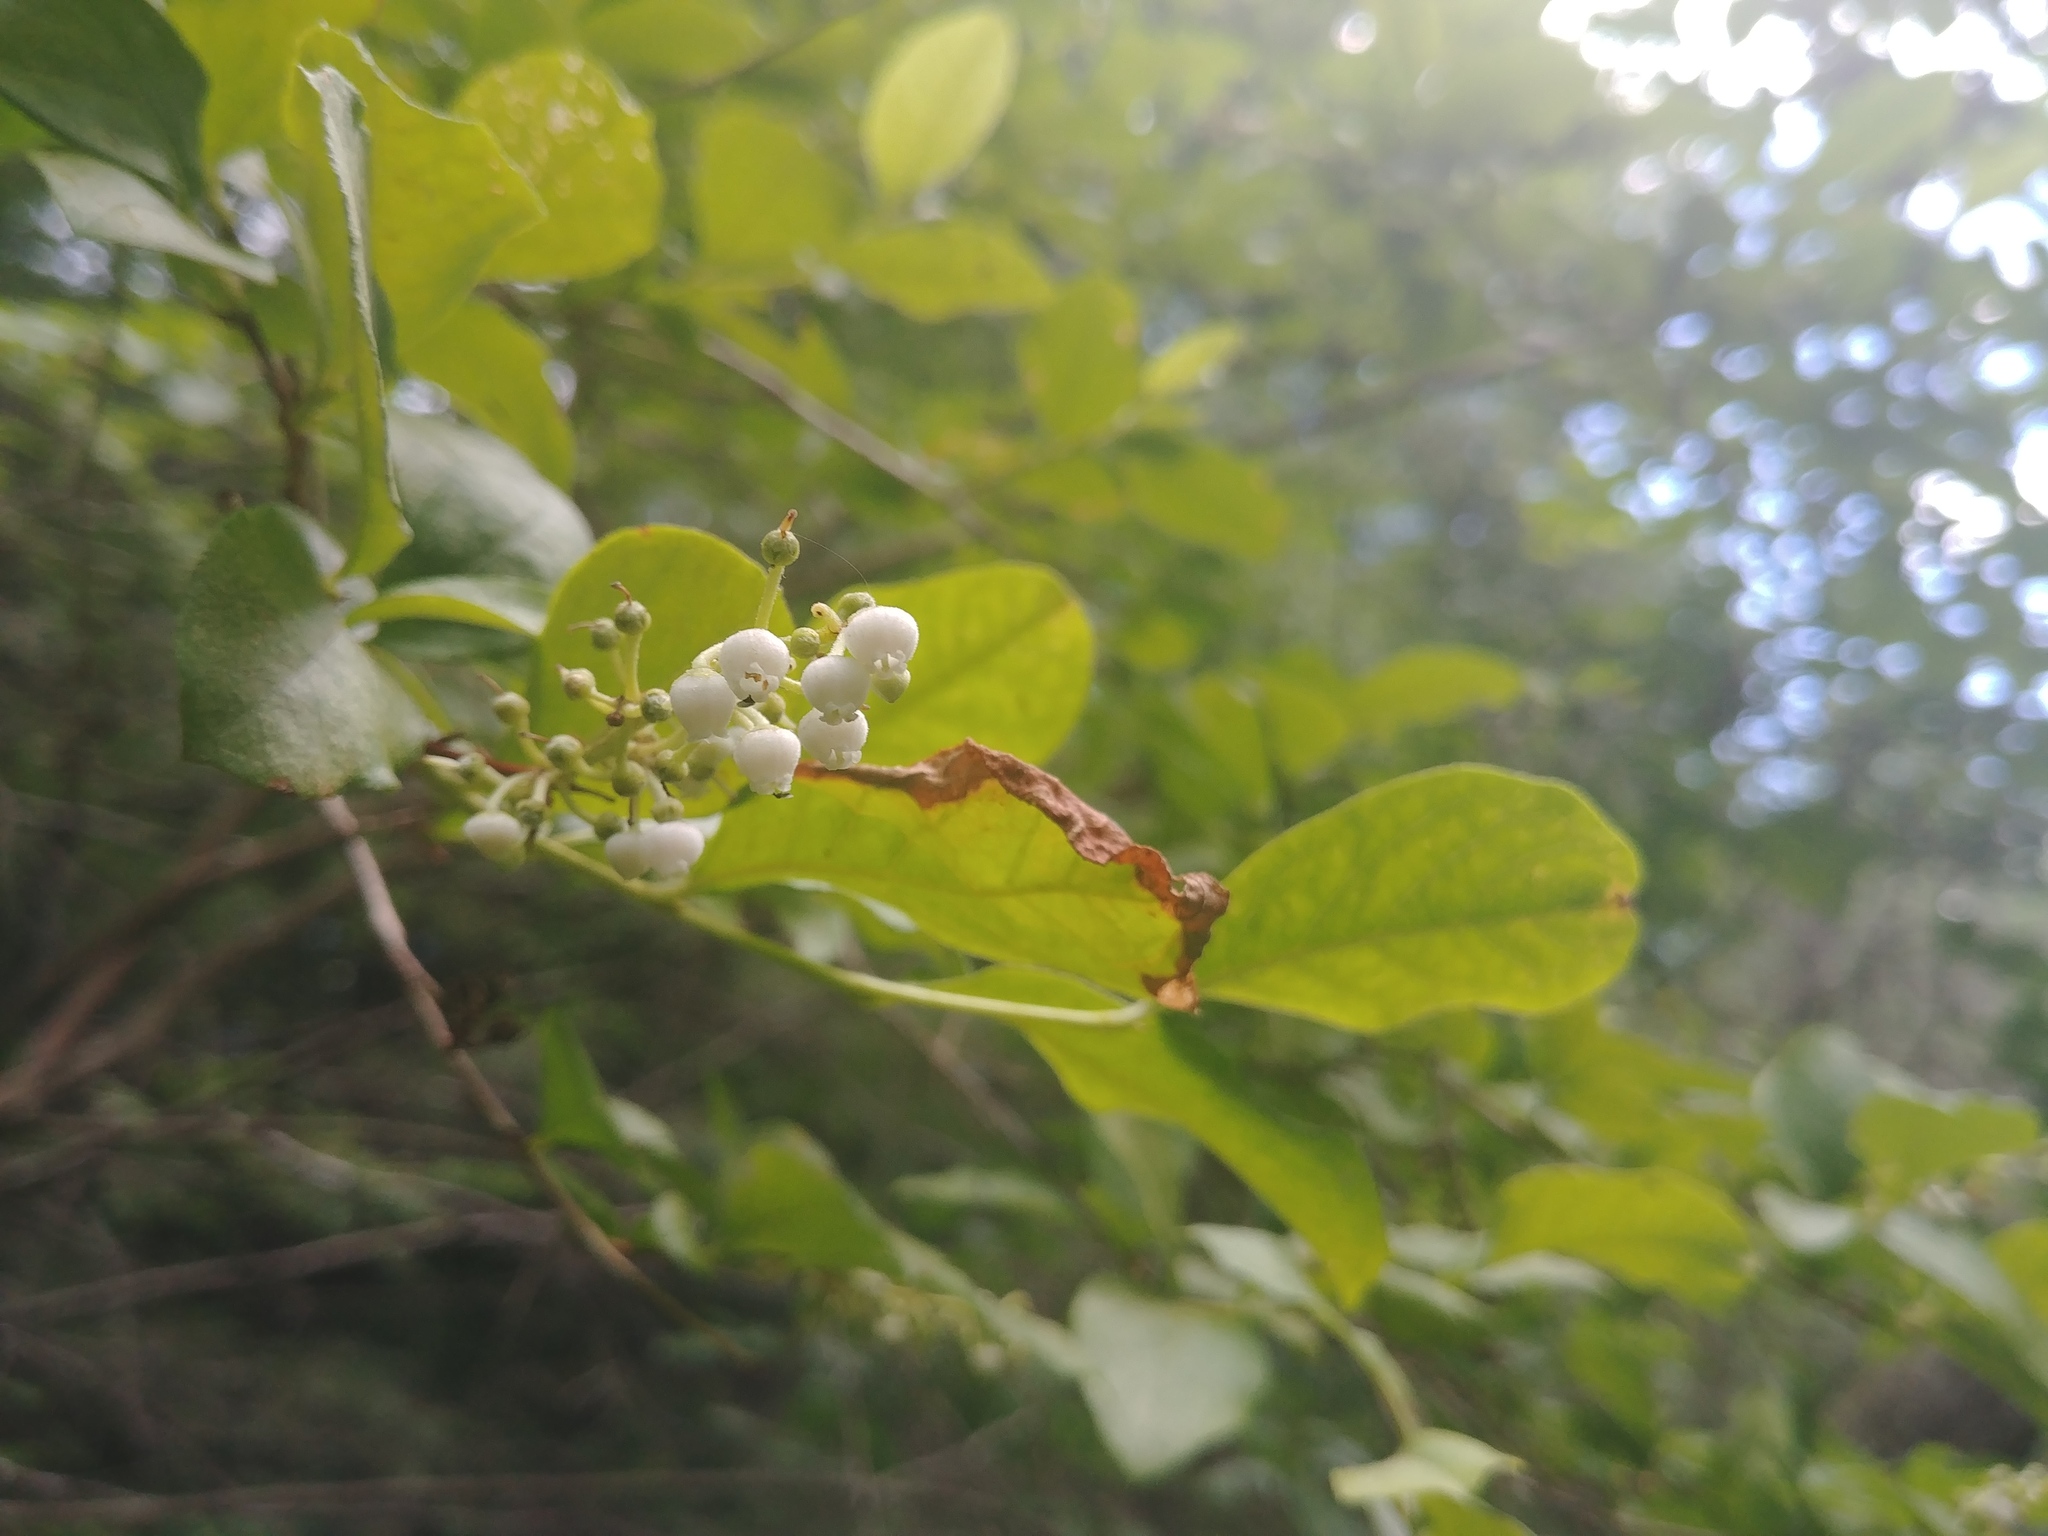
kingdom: Plantae
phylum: Tracheophyta
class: Magnoliopsida
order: Ericales
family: Ericaceae
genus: Lyonia
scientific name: Lyonia ligustrina
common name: Maleberry
